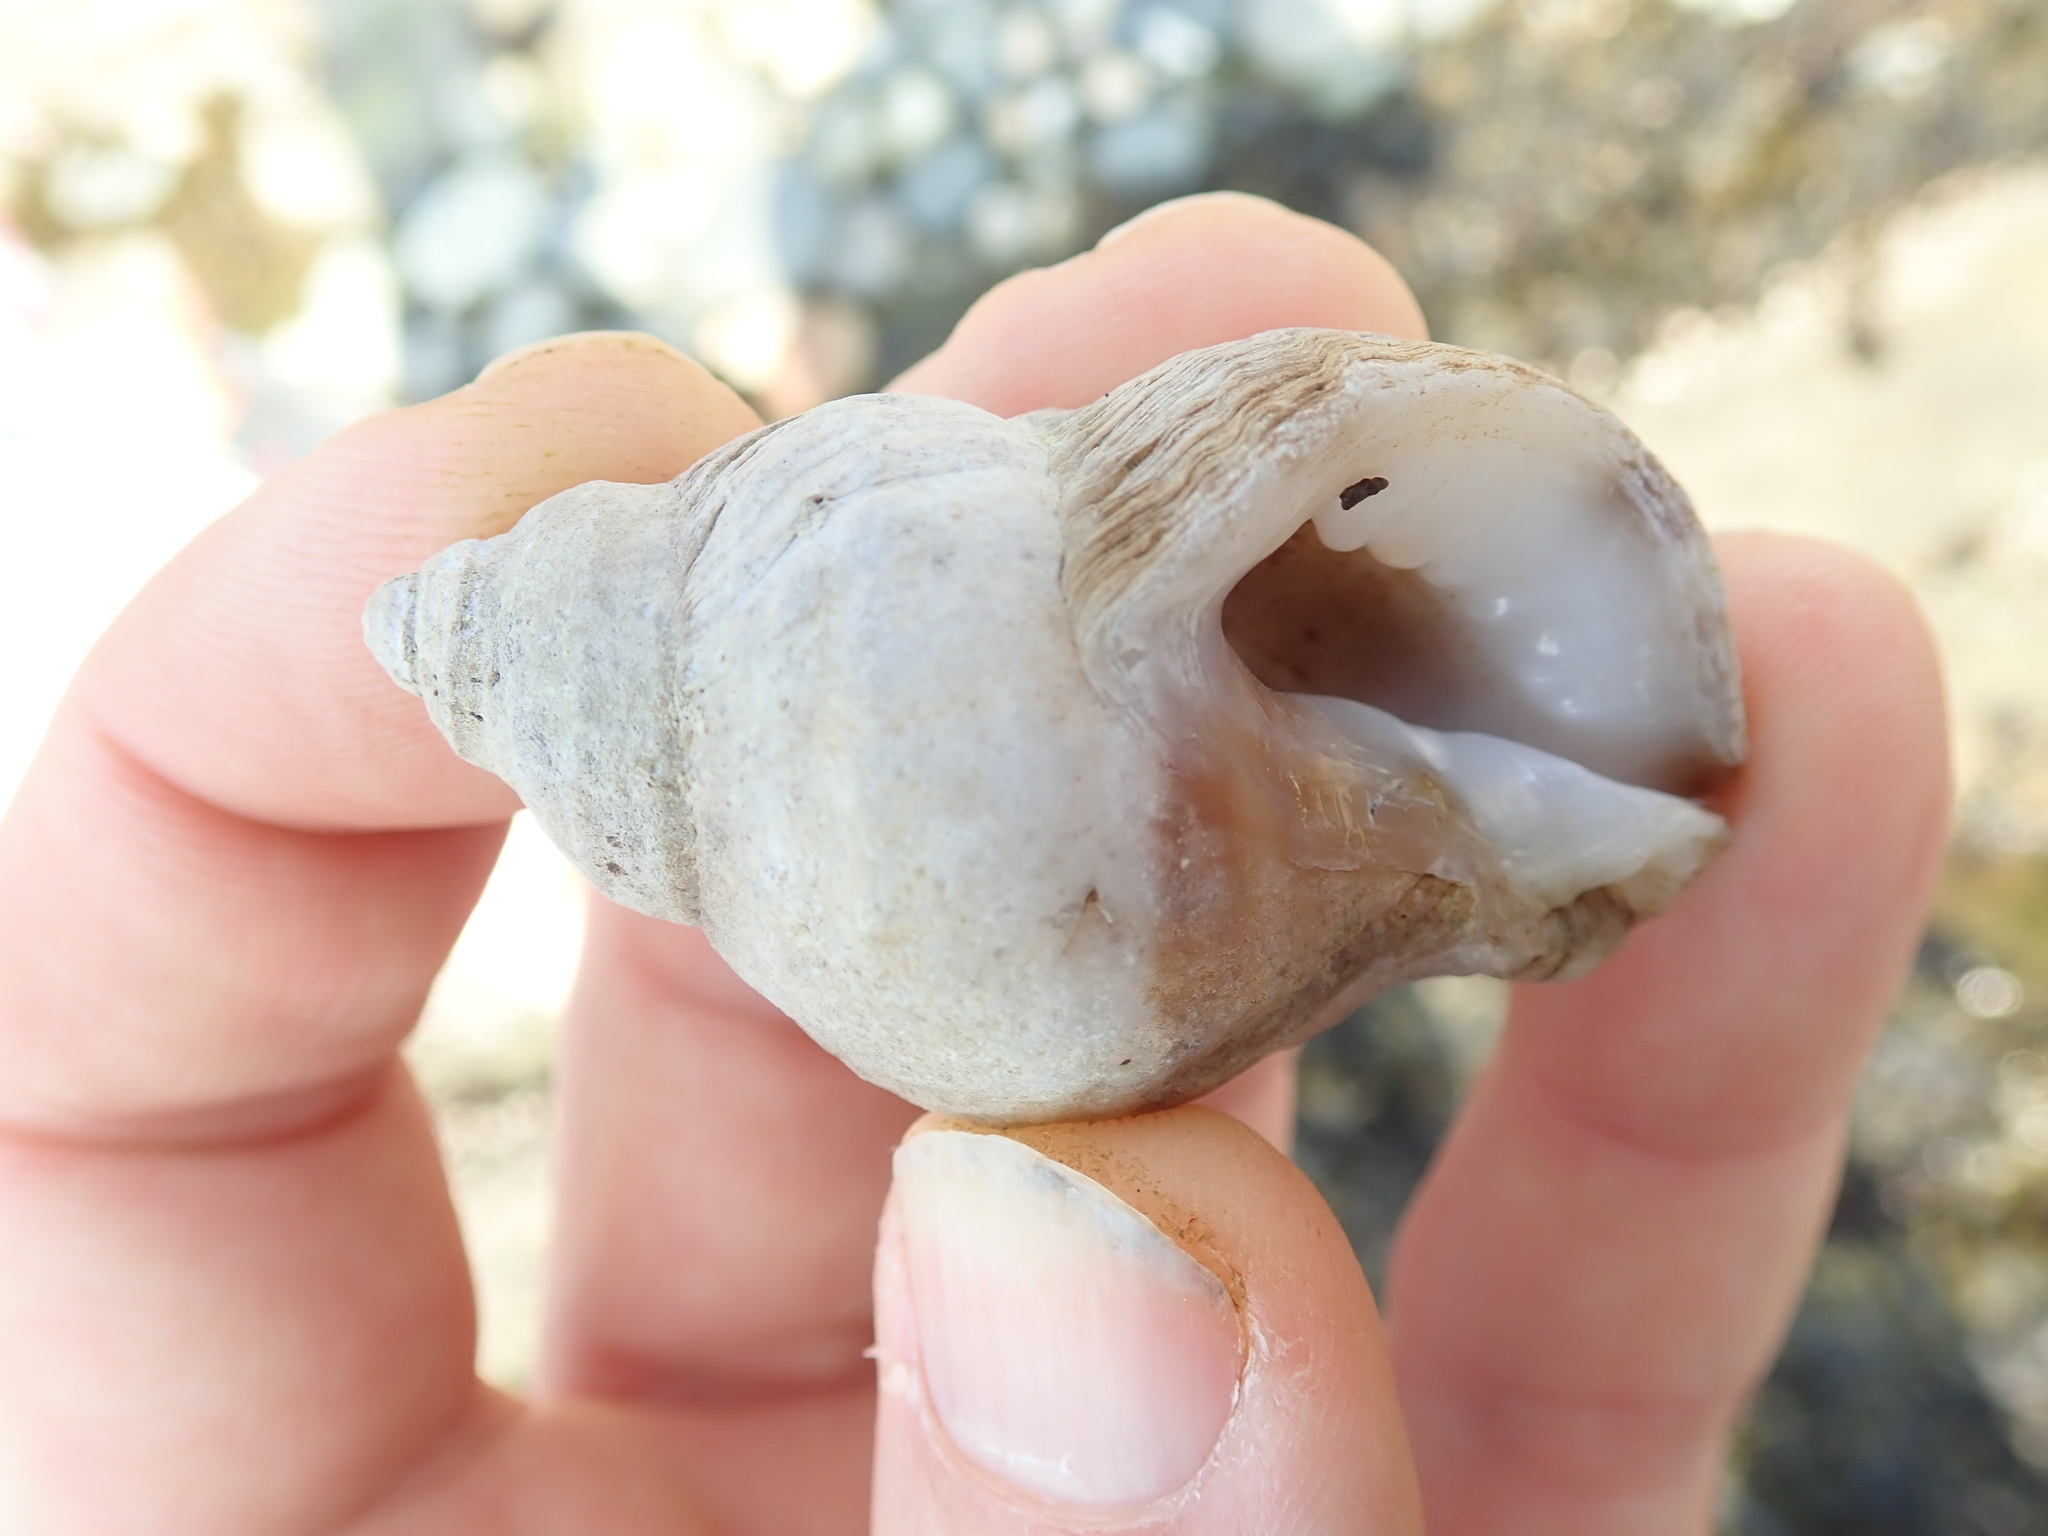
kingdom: Animalia
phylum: Mollusca
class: Gastropoda
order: Neogastropoda
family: Muricidae
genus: Nucella
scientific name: Nucella lamellosa
